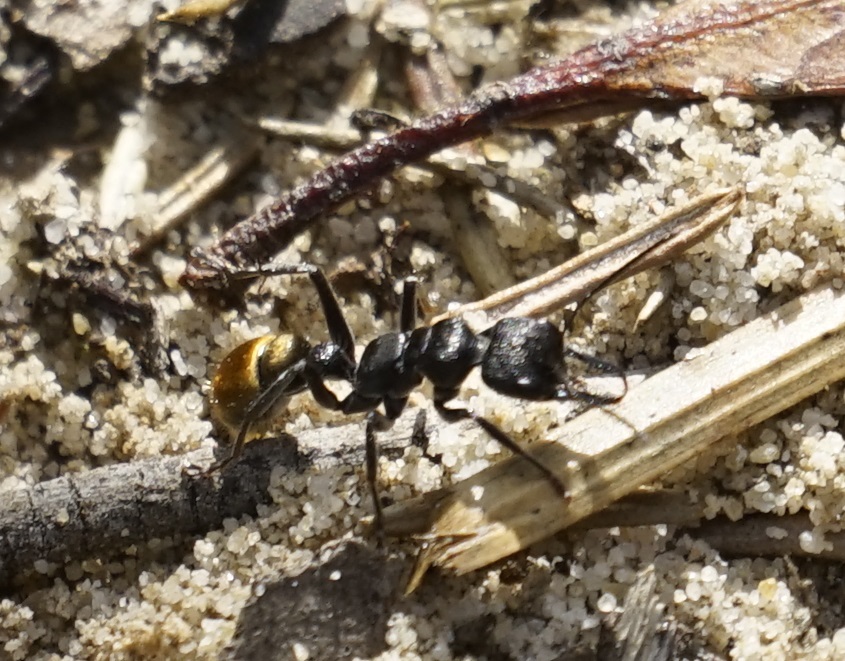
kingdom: Animalia
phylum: Arthropoda
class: Insecta
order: Hymenoptera
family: Formicidae
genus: Myrmecia
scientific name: Myrmecia queenslandica
